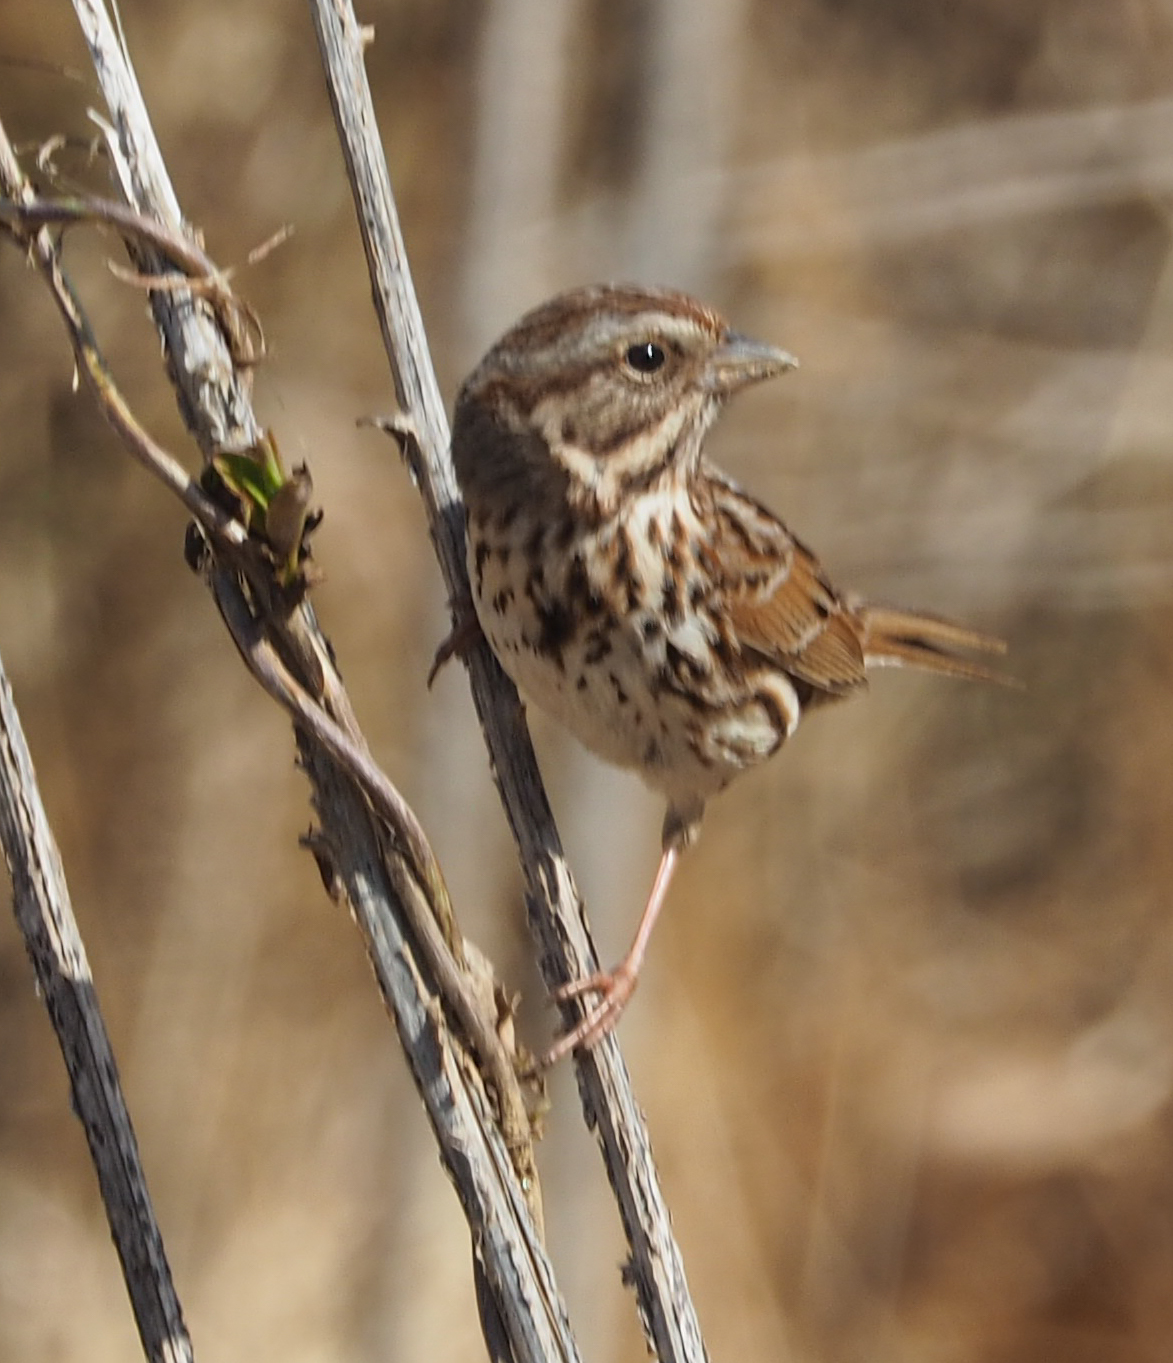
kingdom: Animalia
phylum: Chordata
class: Aves
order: Passeriformes
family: Passerellidae
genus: Melospiza
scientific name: Melospiza melodia
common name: Song sparrow
